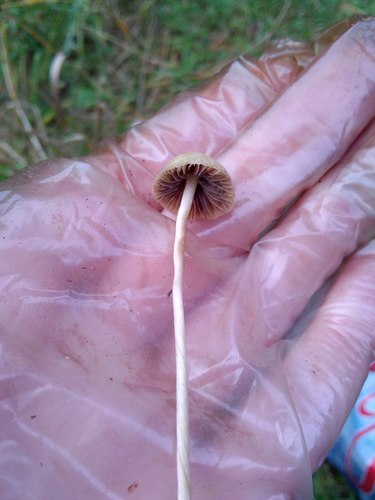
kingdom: Fungi
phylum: Basidiomycota
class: Agaricomycetes
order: Agaricales
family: Agaricaceae
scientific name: Agaricaceae
